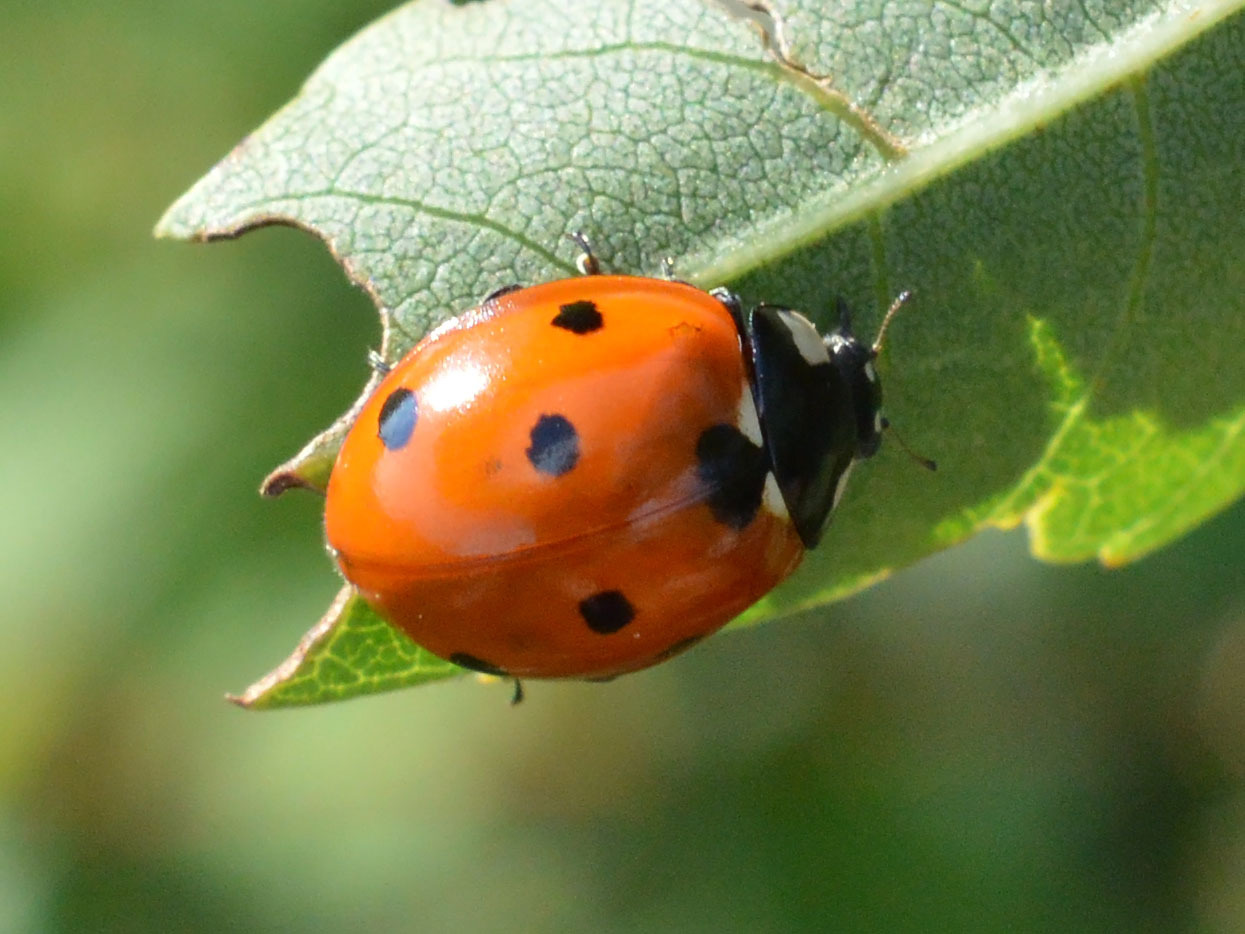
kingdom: Animalia
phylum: Arthropoda
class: Insecta
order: Coleoptera
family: Coccinellidae
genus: Coccinella
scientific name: Coccinella septempunctata
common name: Sevenspotted lady beetle
